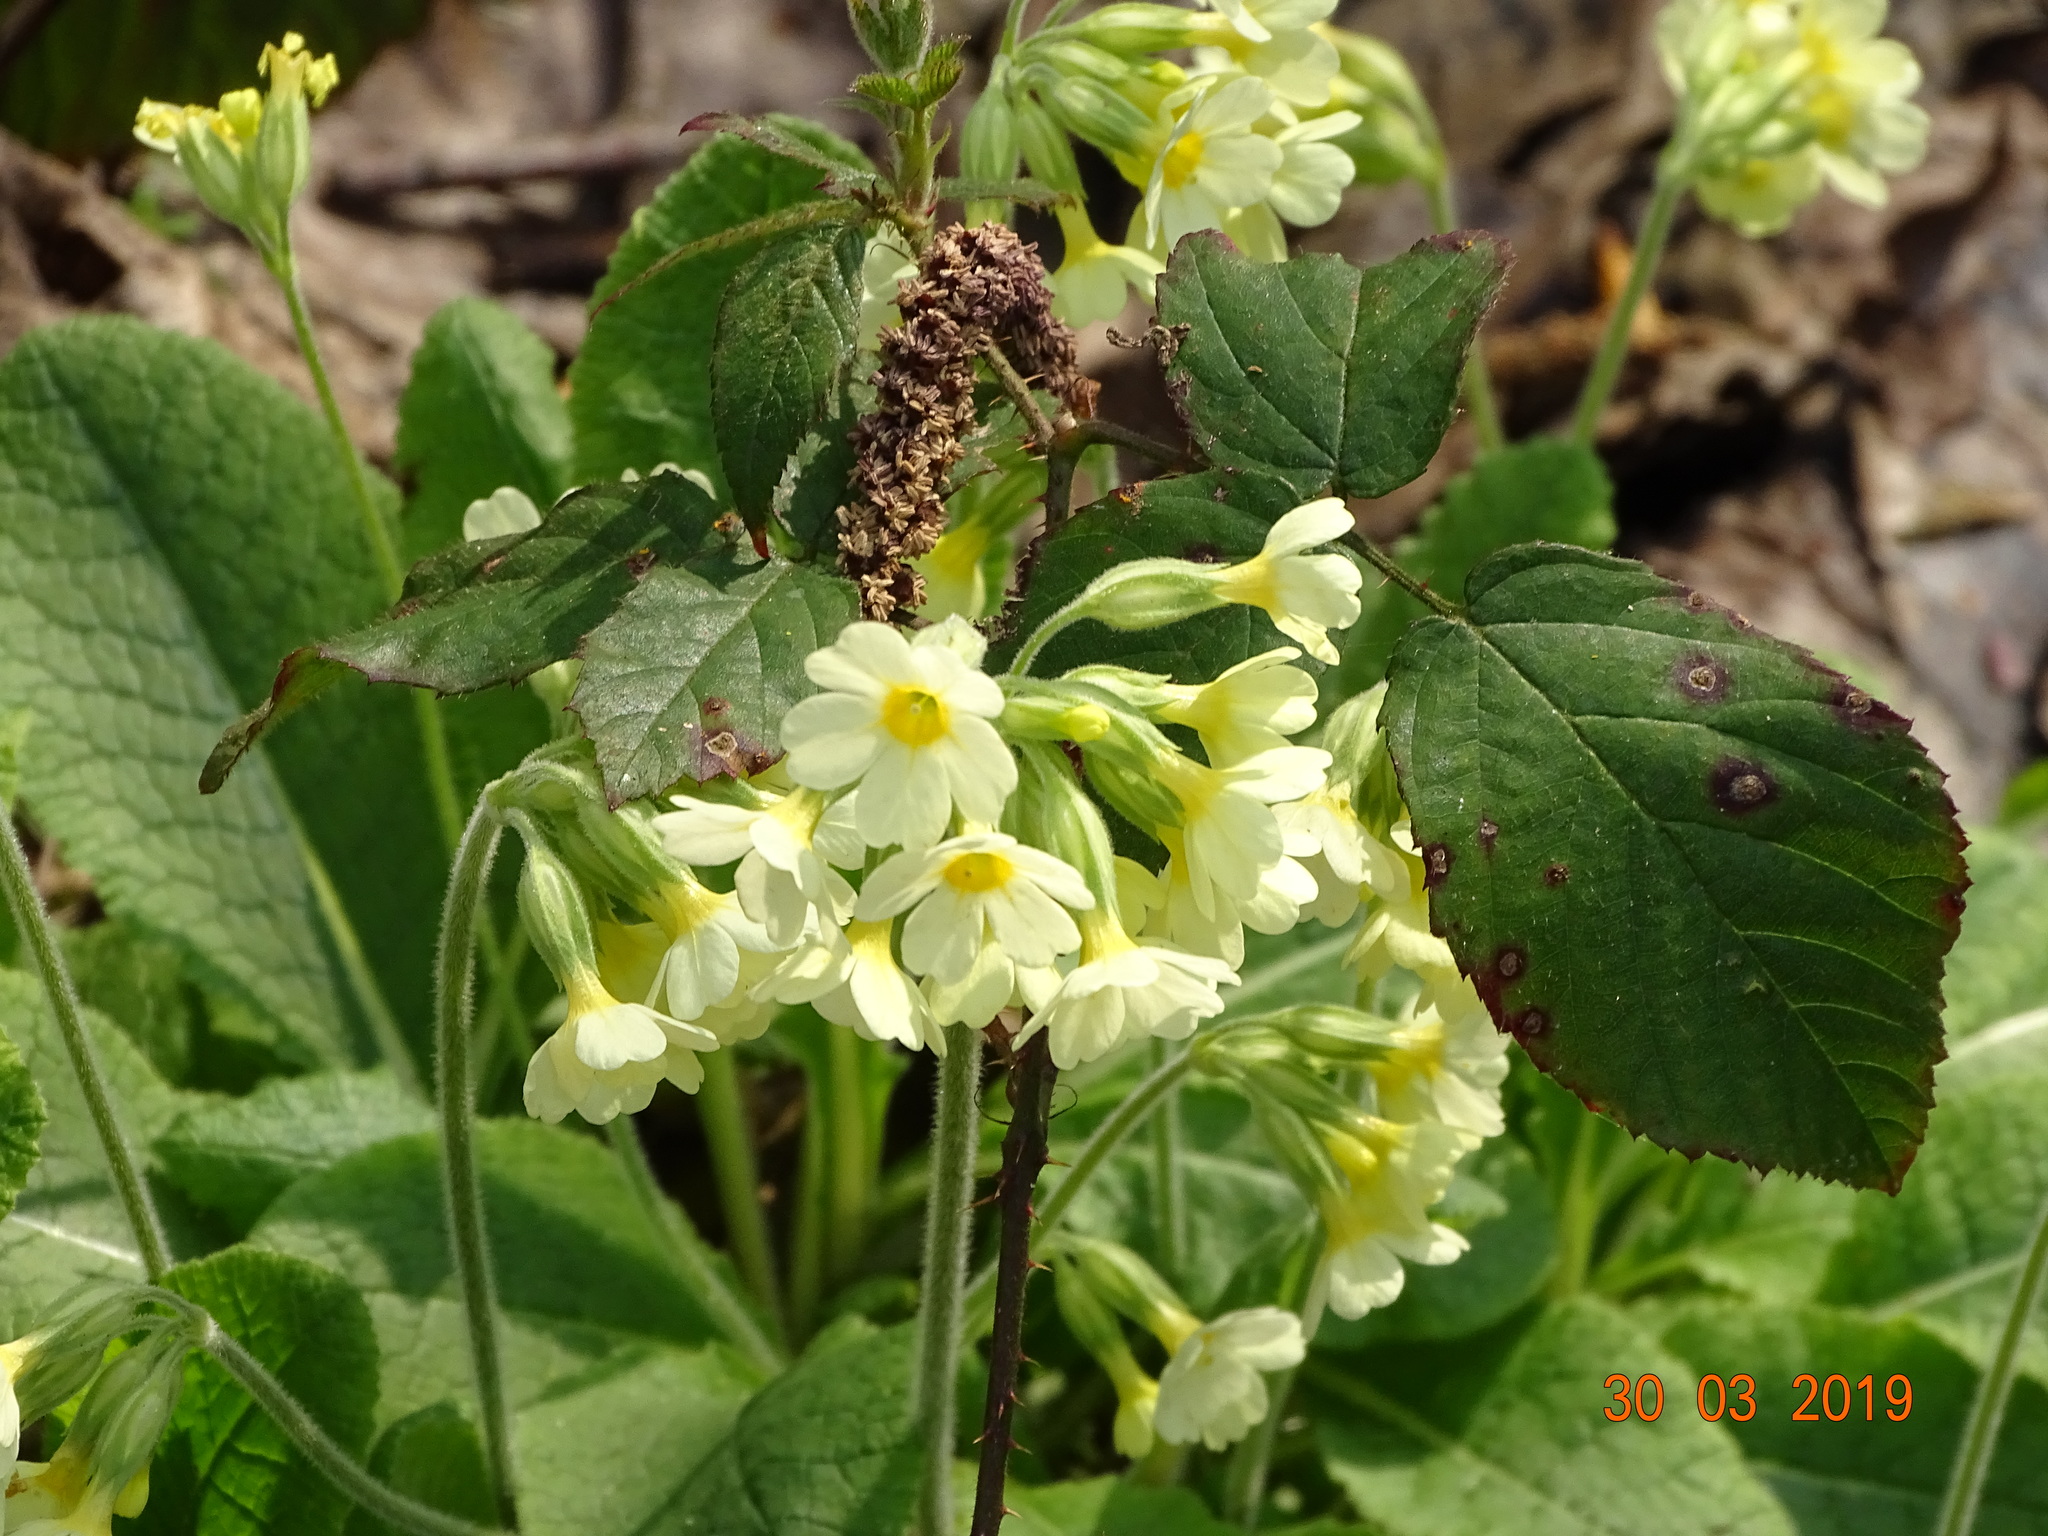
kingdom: Plantae
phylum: Tracheophyta
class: Magnoliopsida
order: Ericales
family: Primulaceae
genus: Primula
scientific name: Primula elatior
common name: Oxlip
